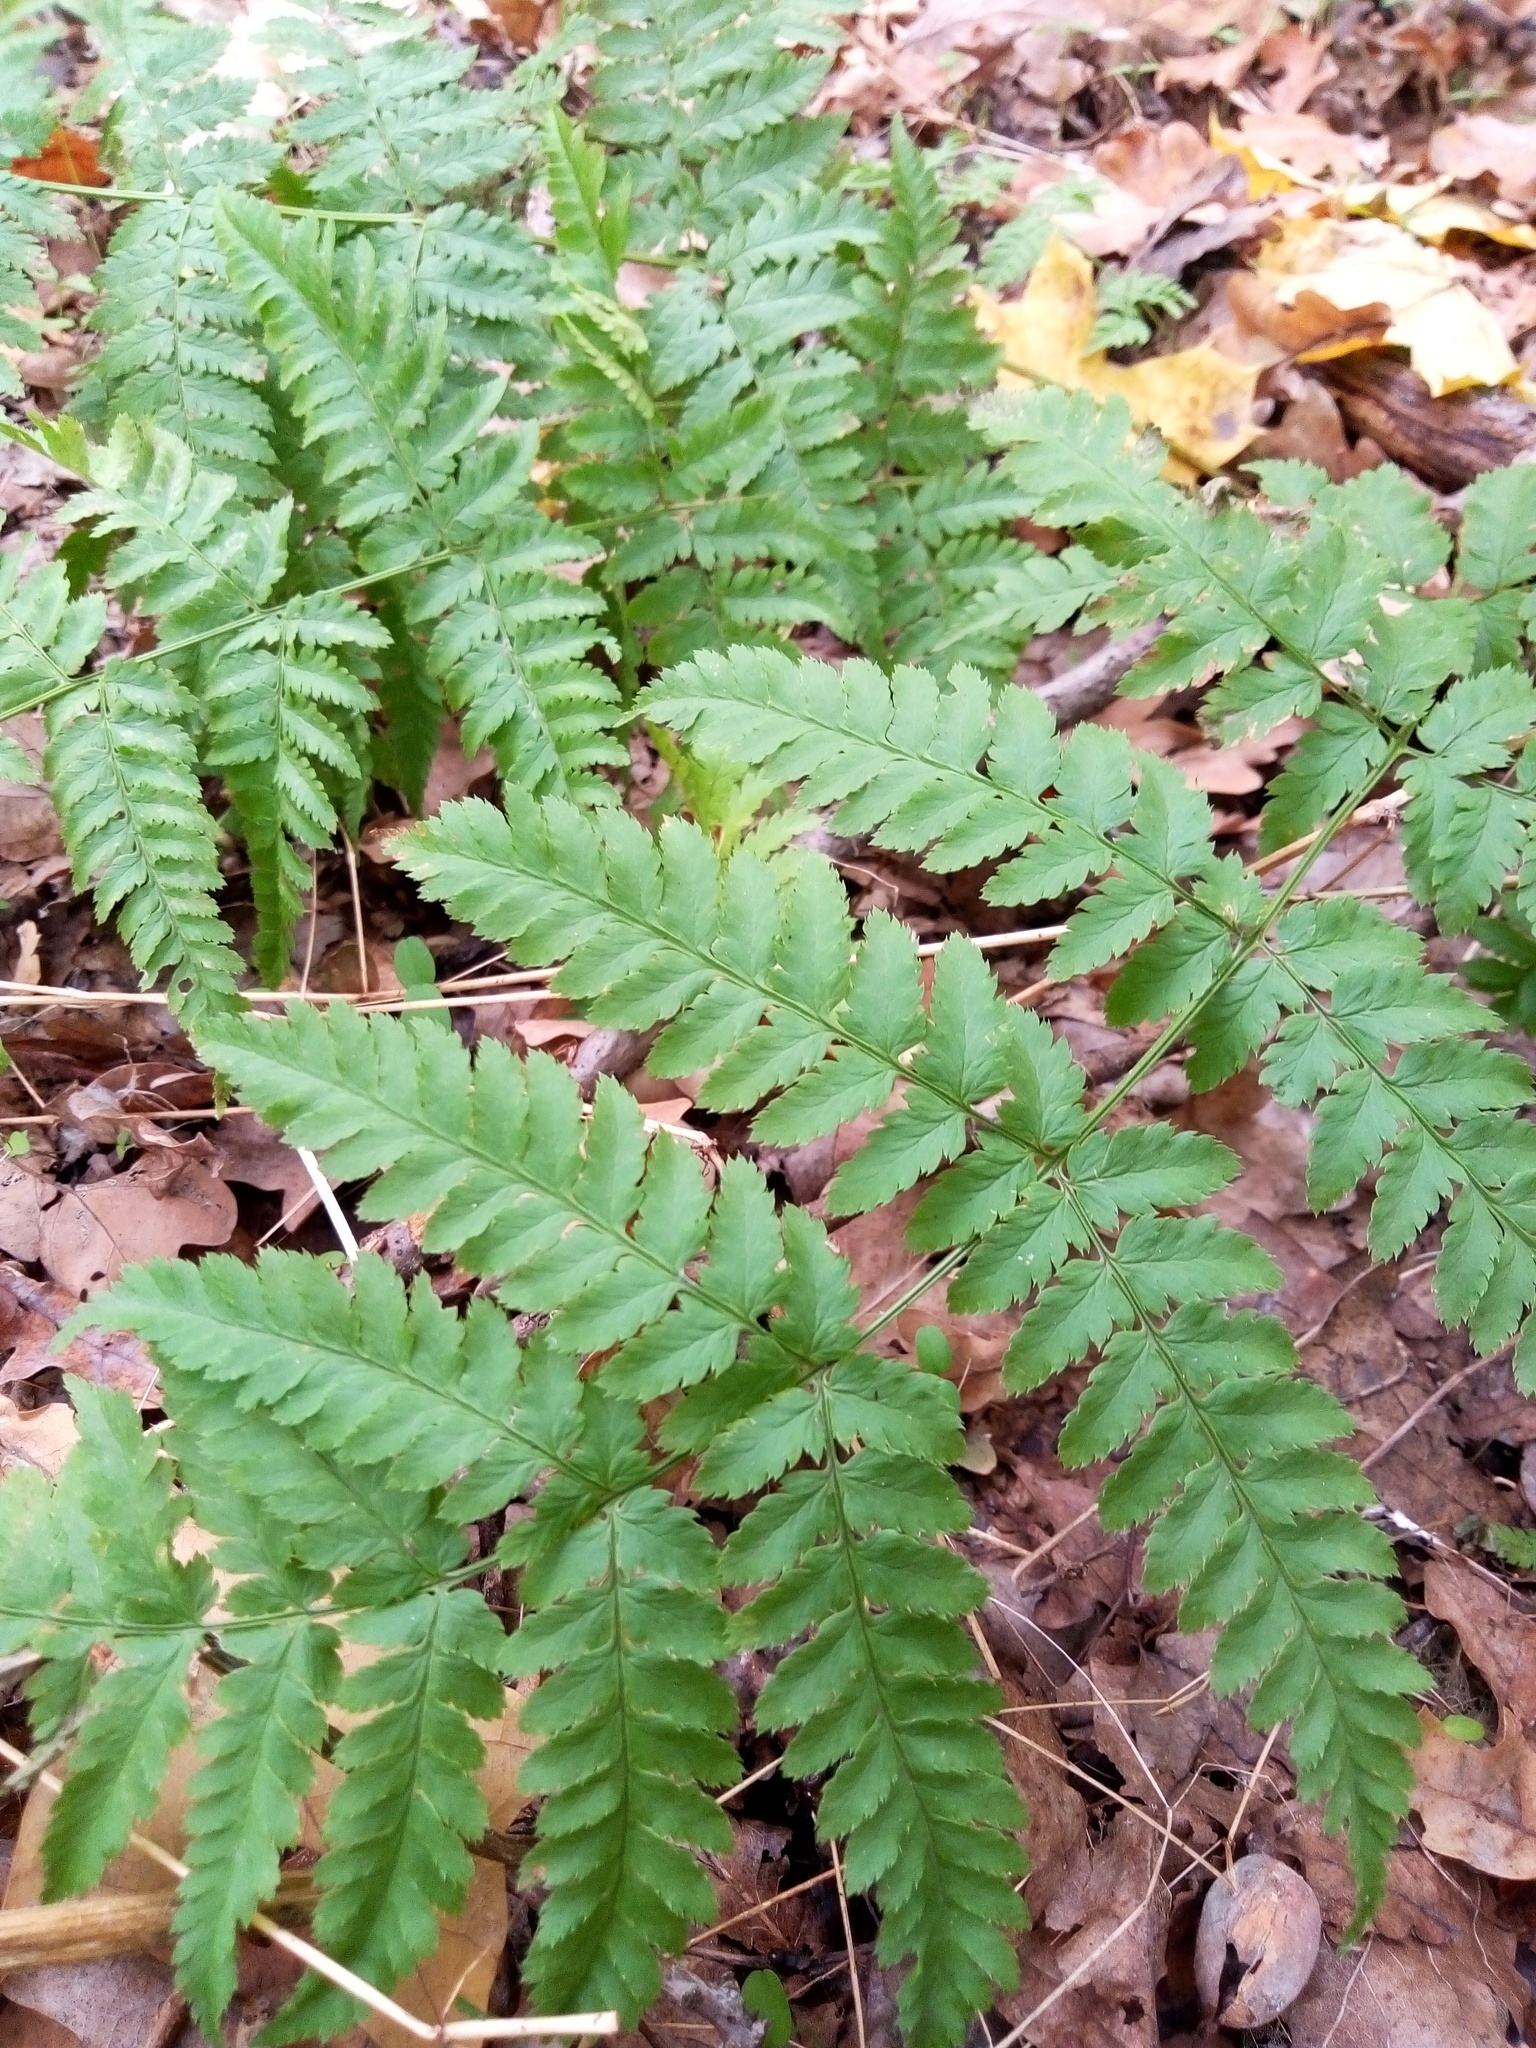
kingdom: Plantae
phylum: Tracheophyta
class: Polypodiopsida
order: Polypodiales
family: Dryopteridaceae
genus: Dryopteris
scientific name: Dryopteris carthusiana
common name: Narrow buckler-fern
